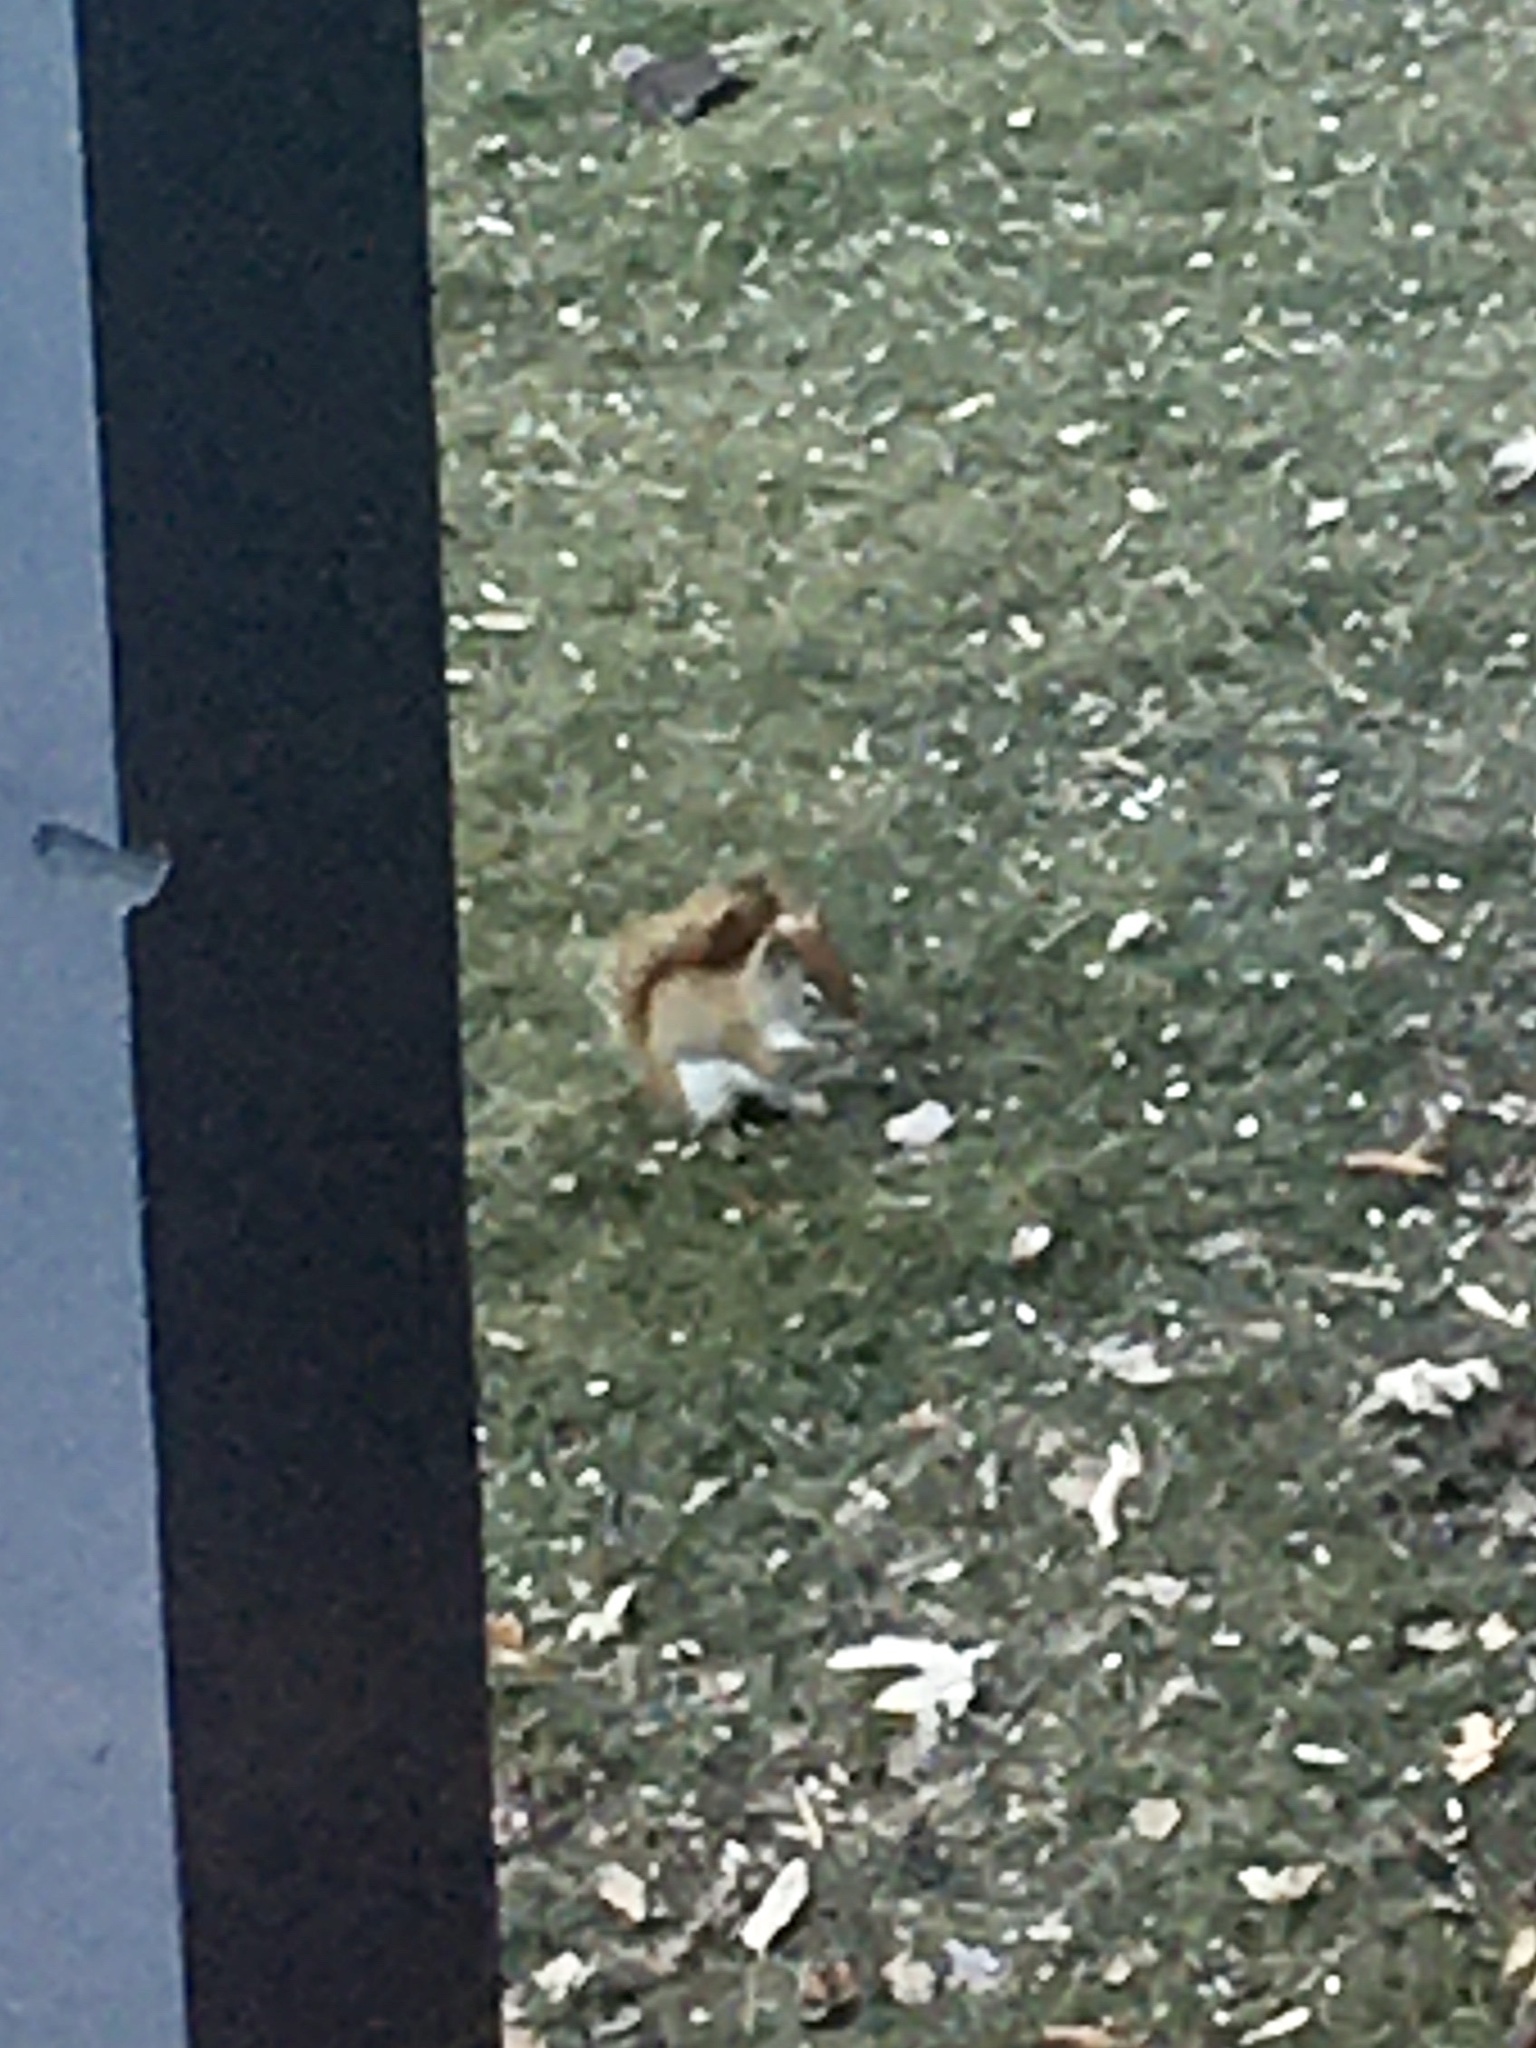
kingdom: Animalia
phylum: Chordata
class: Mammalia
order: Rodentia
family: Sciuridae
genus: Tamiasciurus
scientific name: Tamiasciurus hudsonicus
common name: Red squirrel
